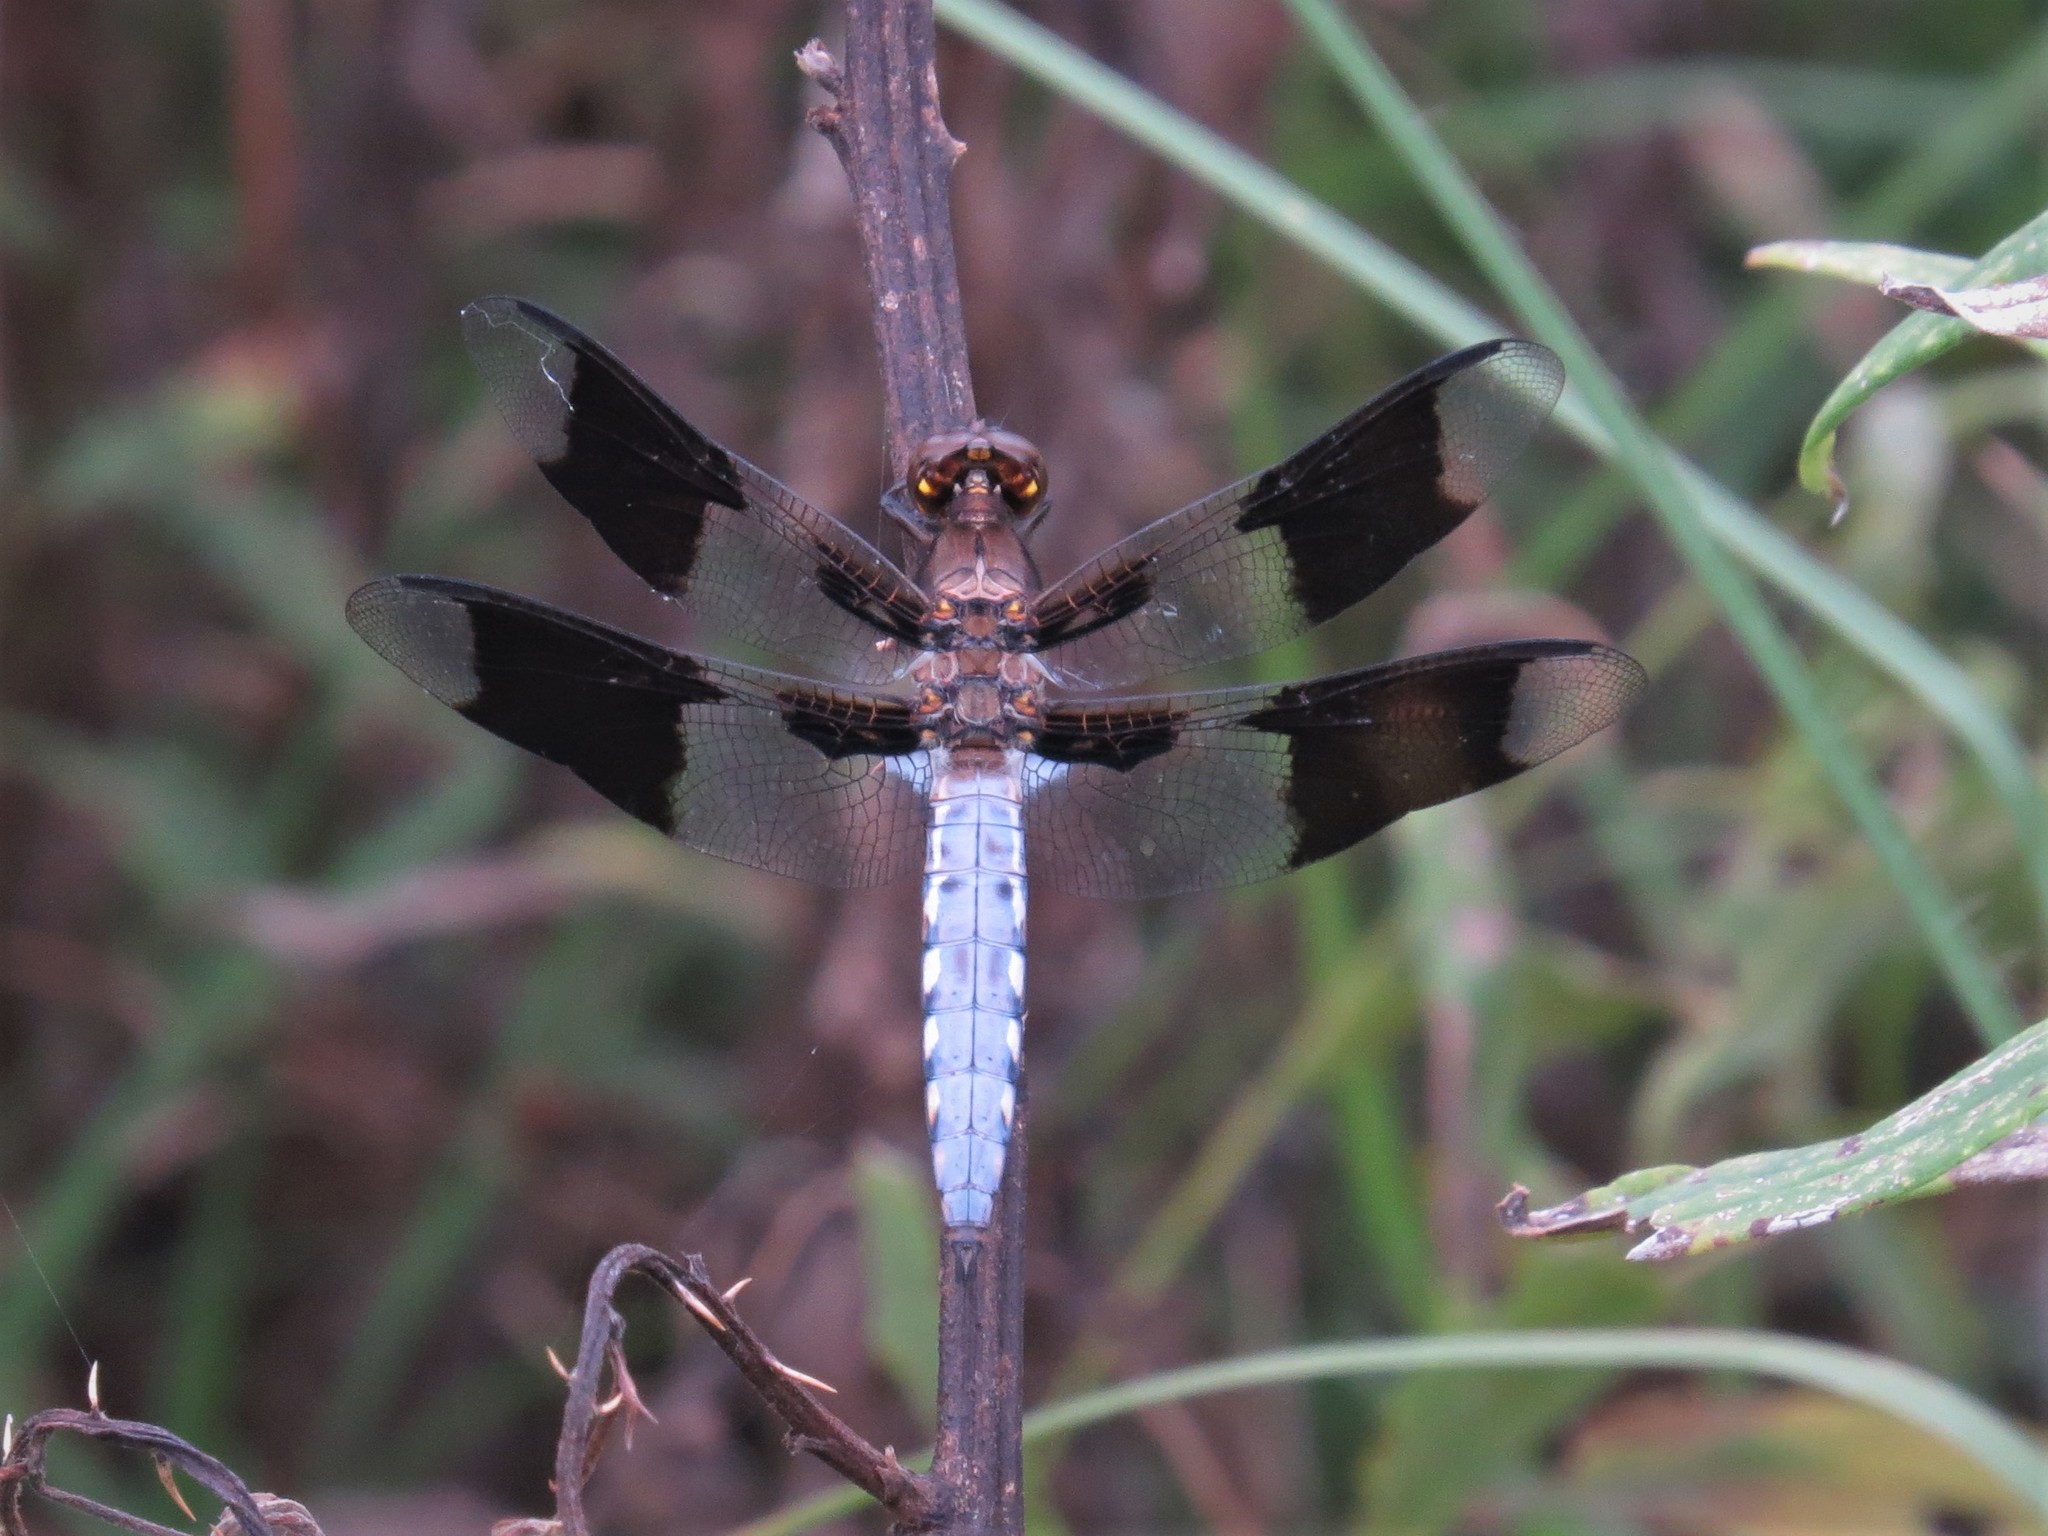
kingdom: Animalia
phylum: Arthropoda
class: Insecta
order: Odonata
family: Libellulidae
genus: Plathemis
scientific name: Plathemis lydia
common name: Common whitetail
